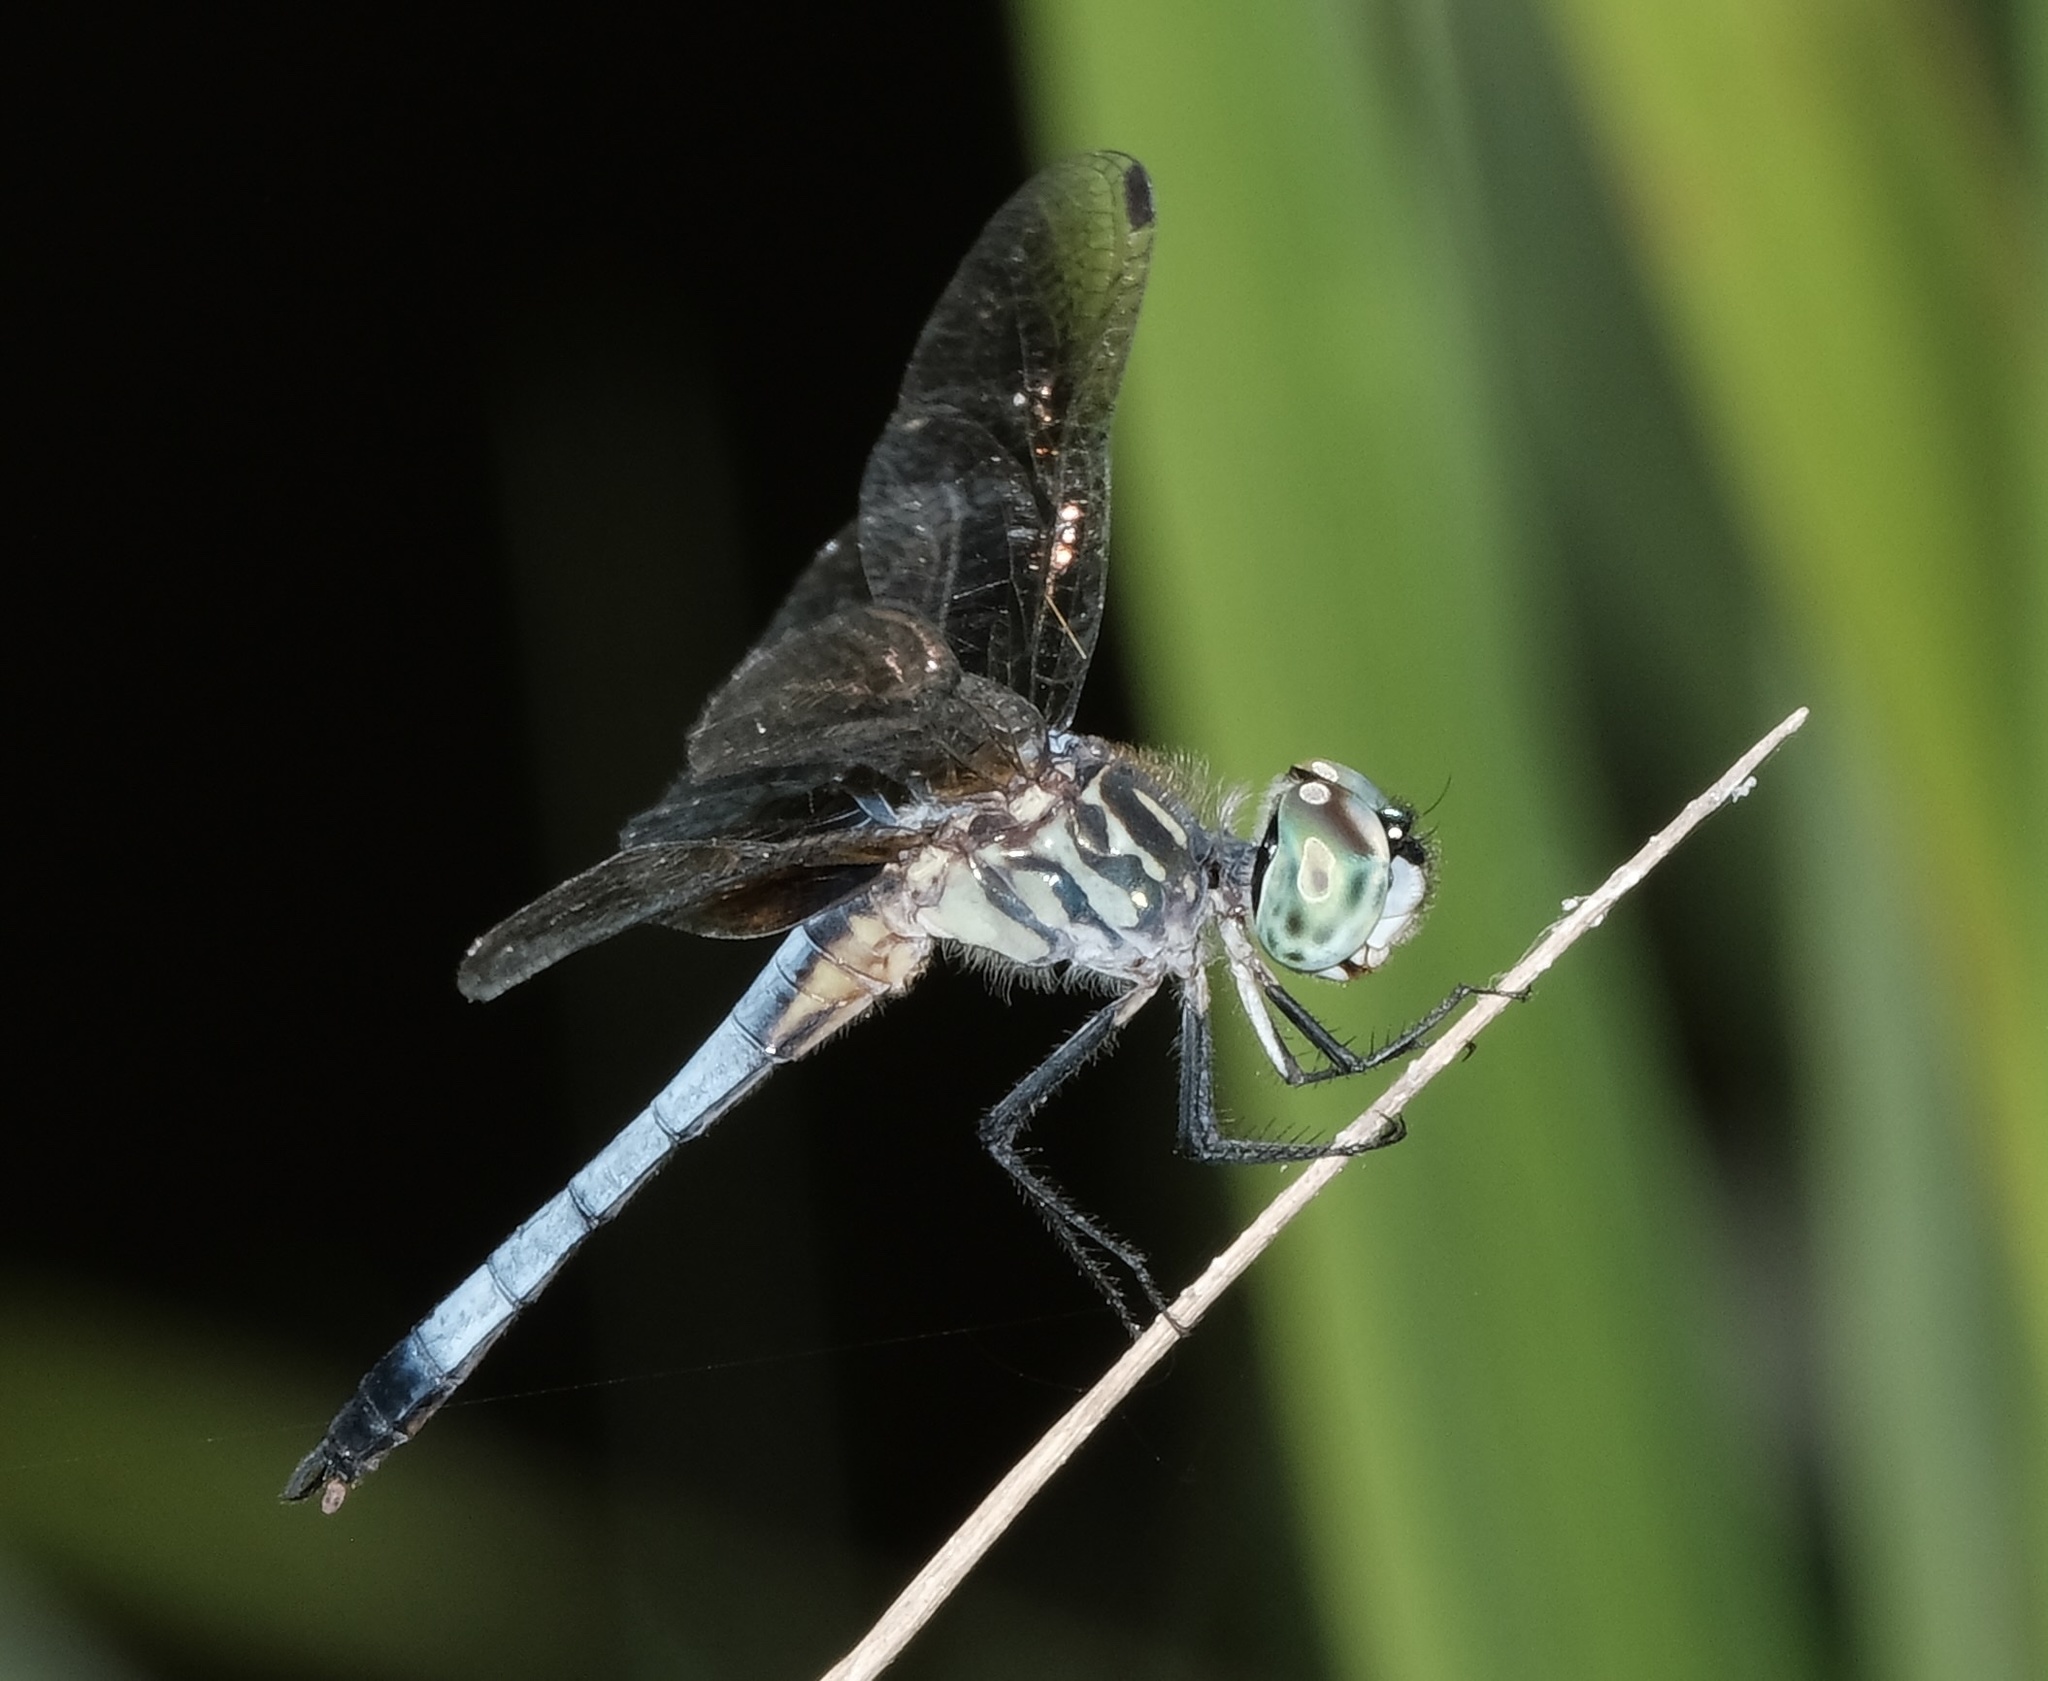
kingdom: Animalia
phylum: Arthropoda
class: Insecta
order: Odonata
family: Libellulidae
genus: Pachydiplax
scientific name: Pachydiplax longipennis
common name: Blue dasher
